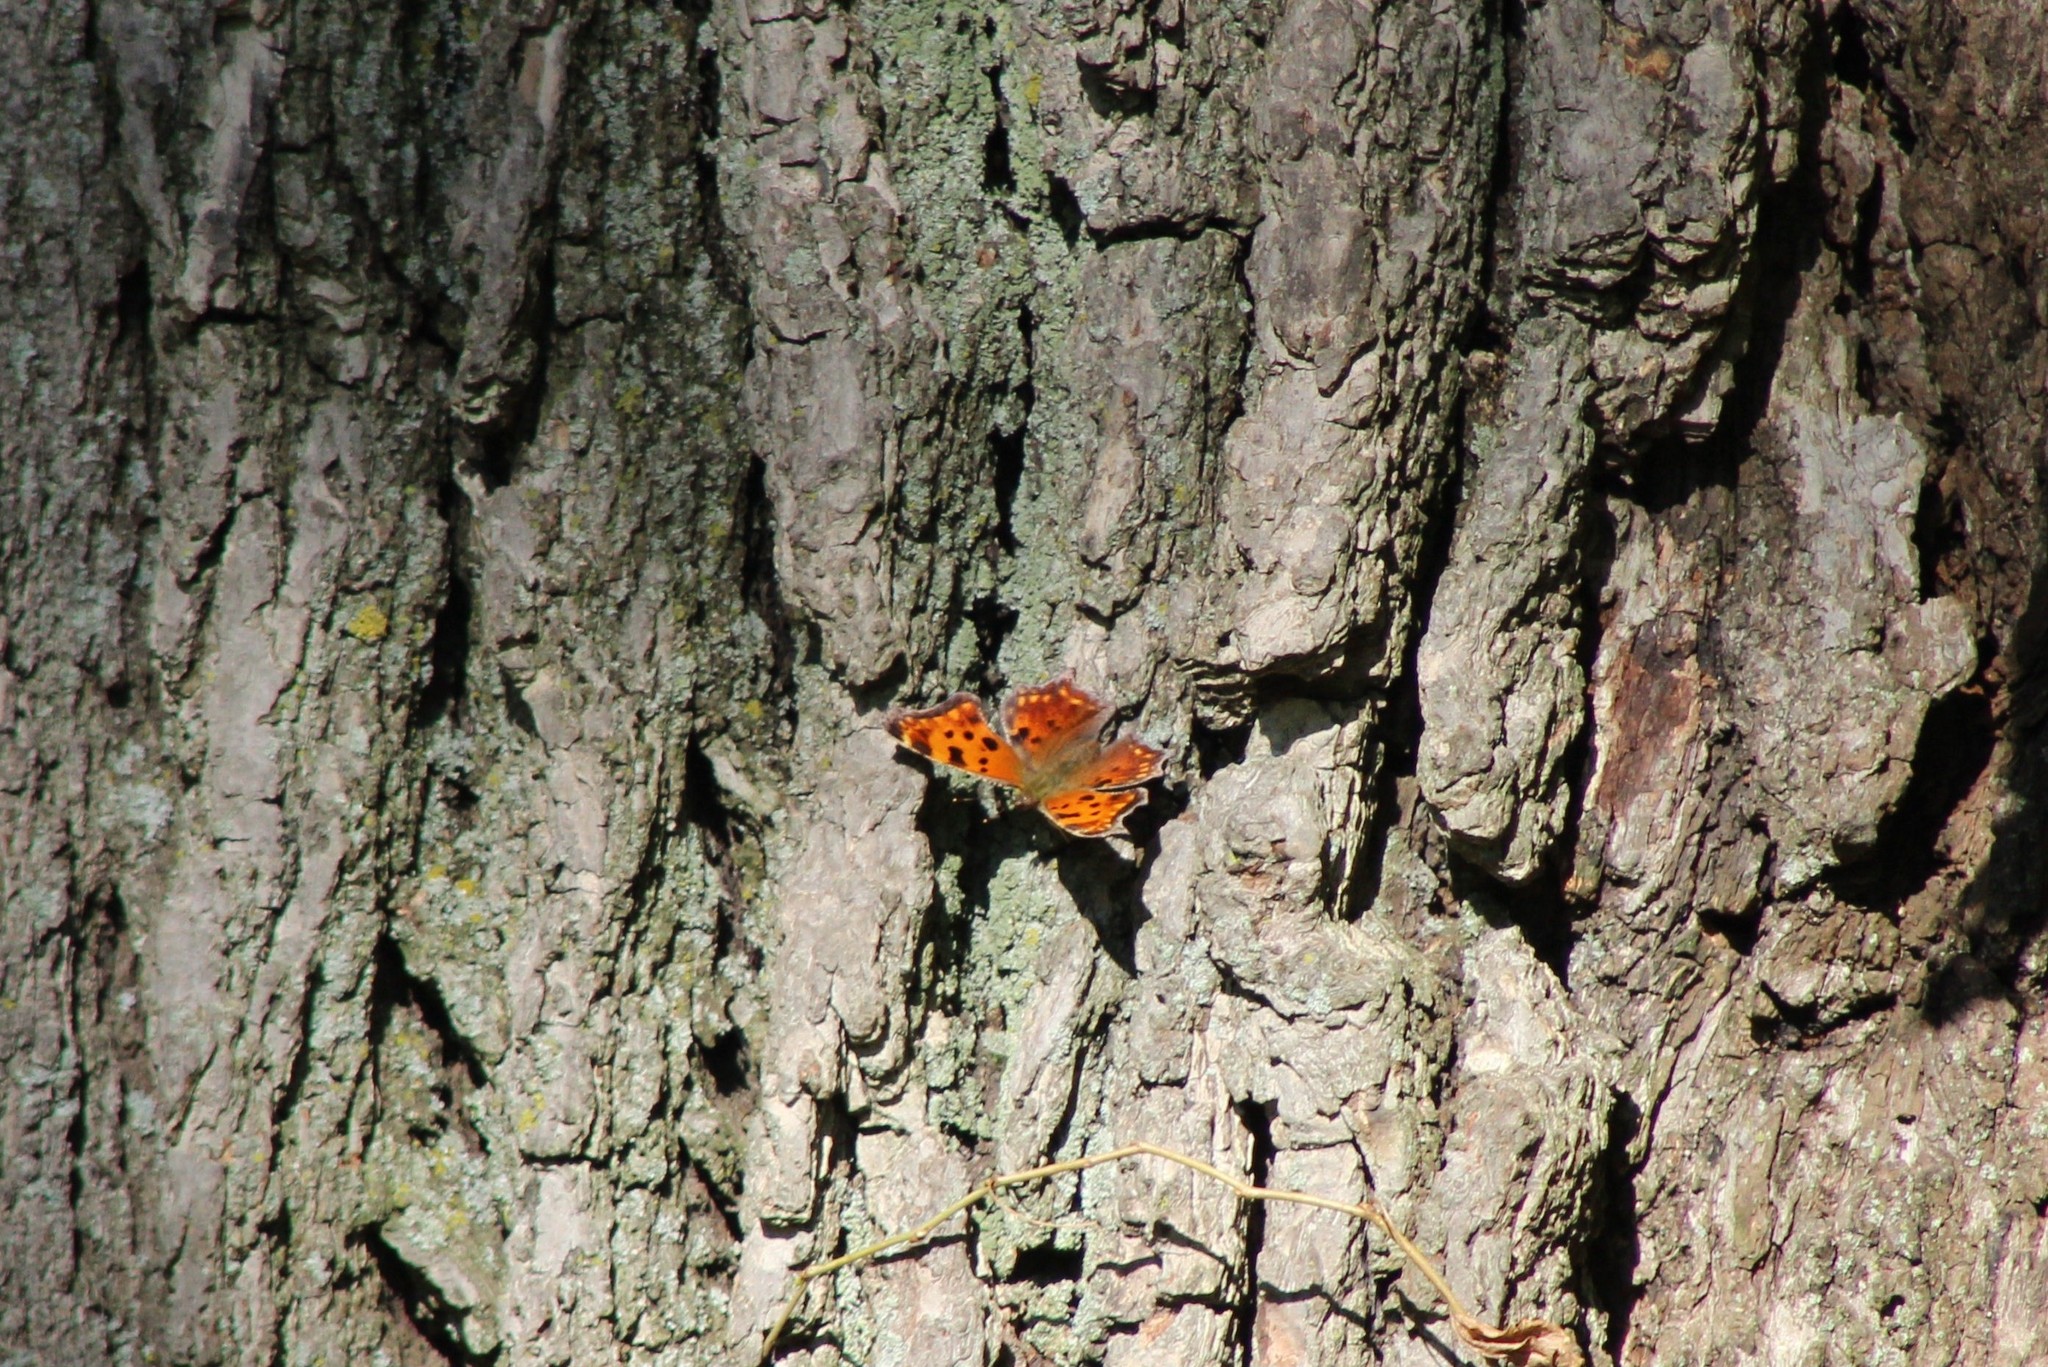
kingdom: Animalia
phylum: Arthropoda
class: Insecta
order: Lepidoptera
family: Nymphalidae
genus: Polygonia
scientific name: Polygonia comma
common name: Eastern comma
